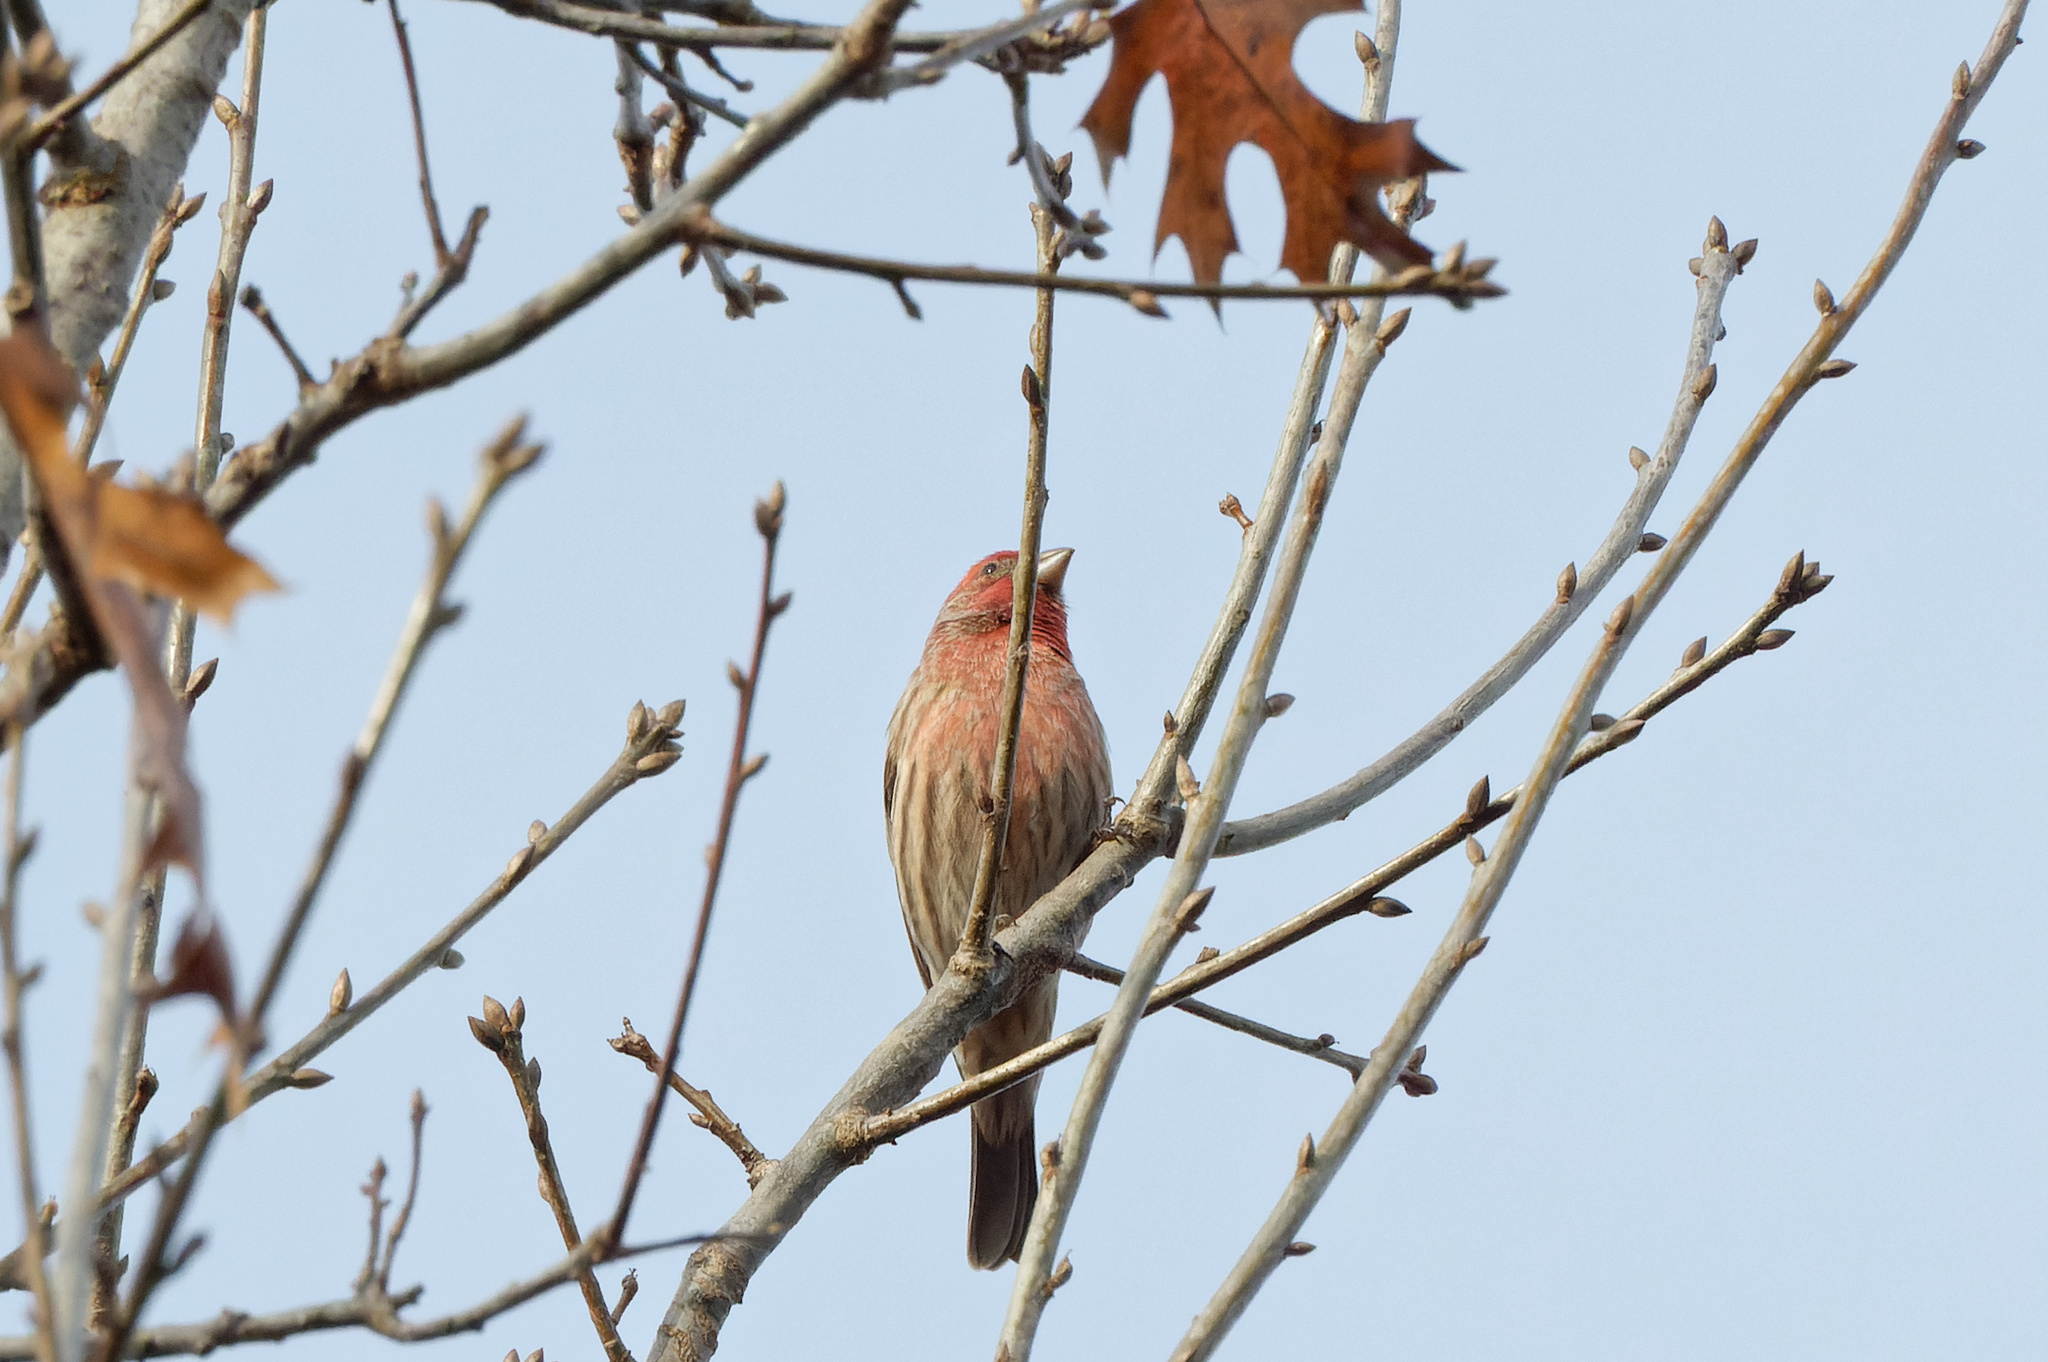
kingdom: Animalia
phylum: Chordata
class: Aves
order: Passeriformes
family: Fringillidae
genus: Haemorhous
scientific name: Haemorhous mexicanus
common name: House finch
